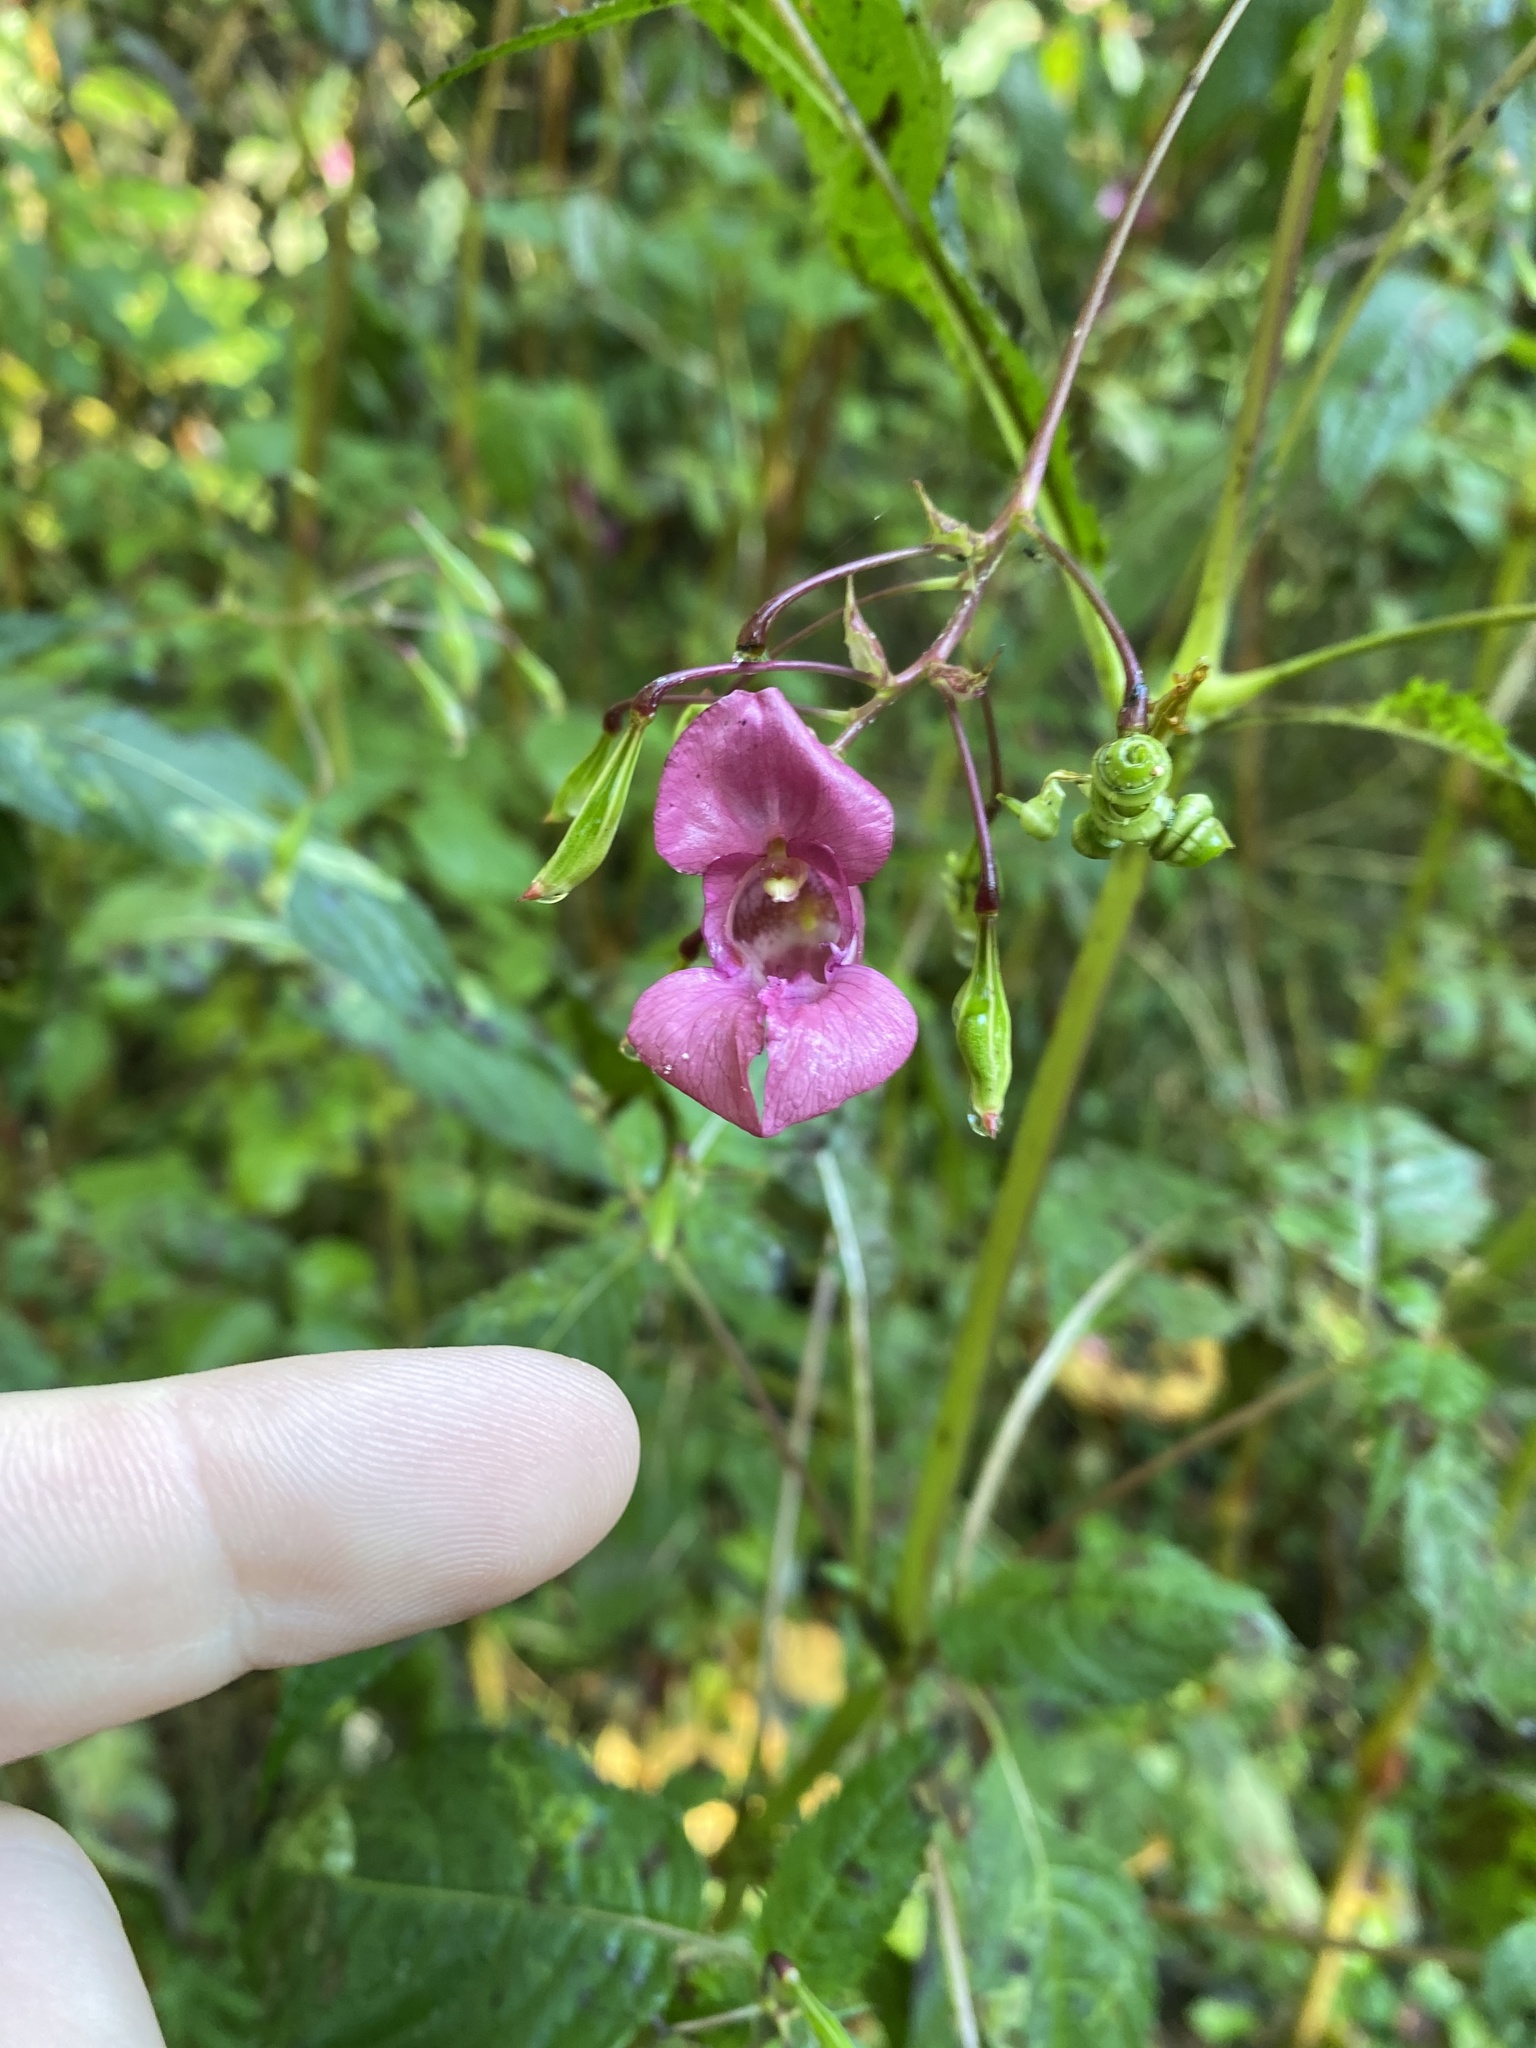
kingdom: Plantae
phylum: Tracheophyta
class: Magnoliopsida
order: Ericales
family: Balsaminaceae
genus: Impatiens
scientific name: Impatiens glandulifera
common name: Himalayan balsam
